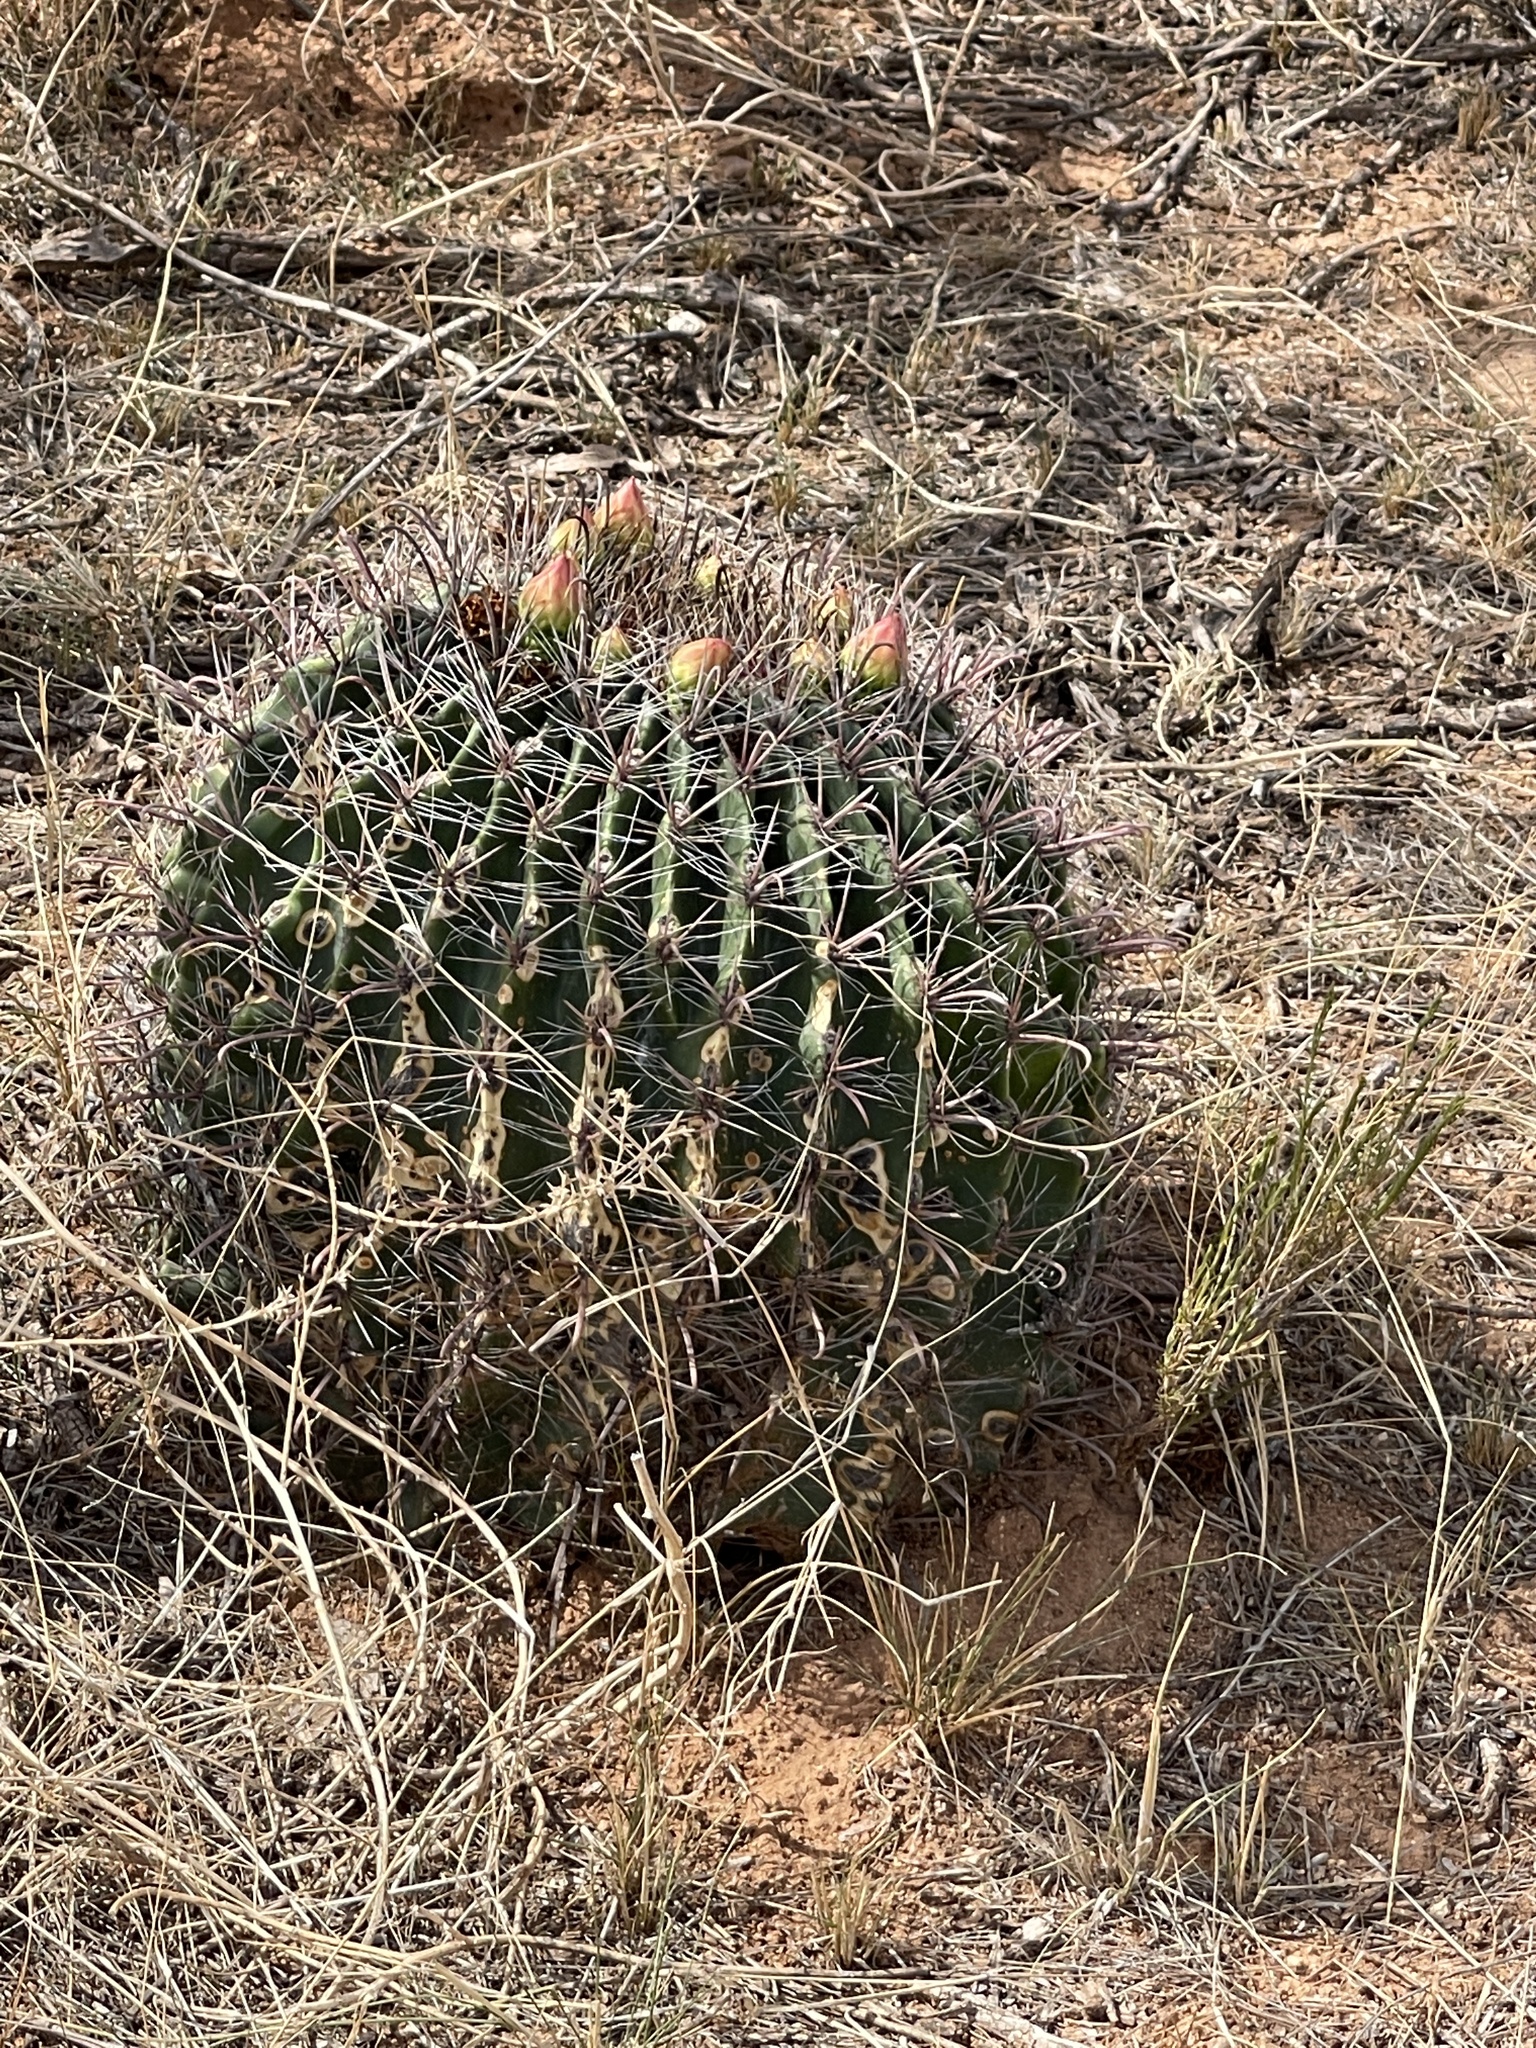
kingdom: Plantae
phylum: Tracheophyta
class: Magnoliopsida
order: Caryophyllales
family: Cactaceae
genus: Ferocactus
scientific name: Ferocactus wislizeni
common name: Candy barrel cactus
